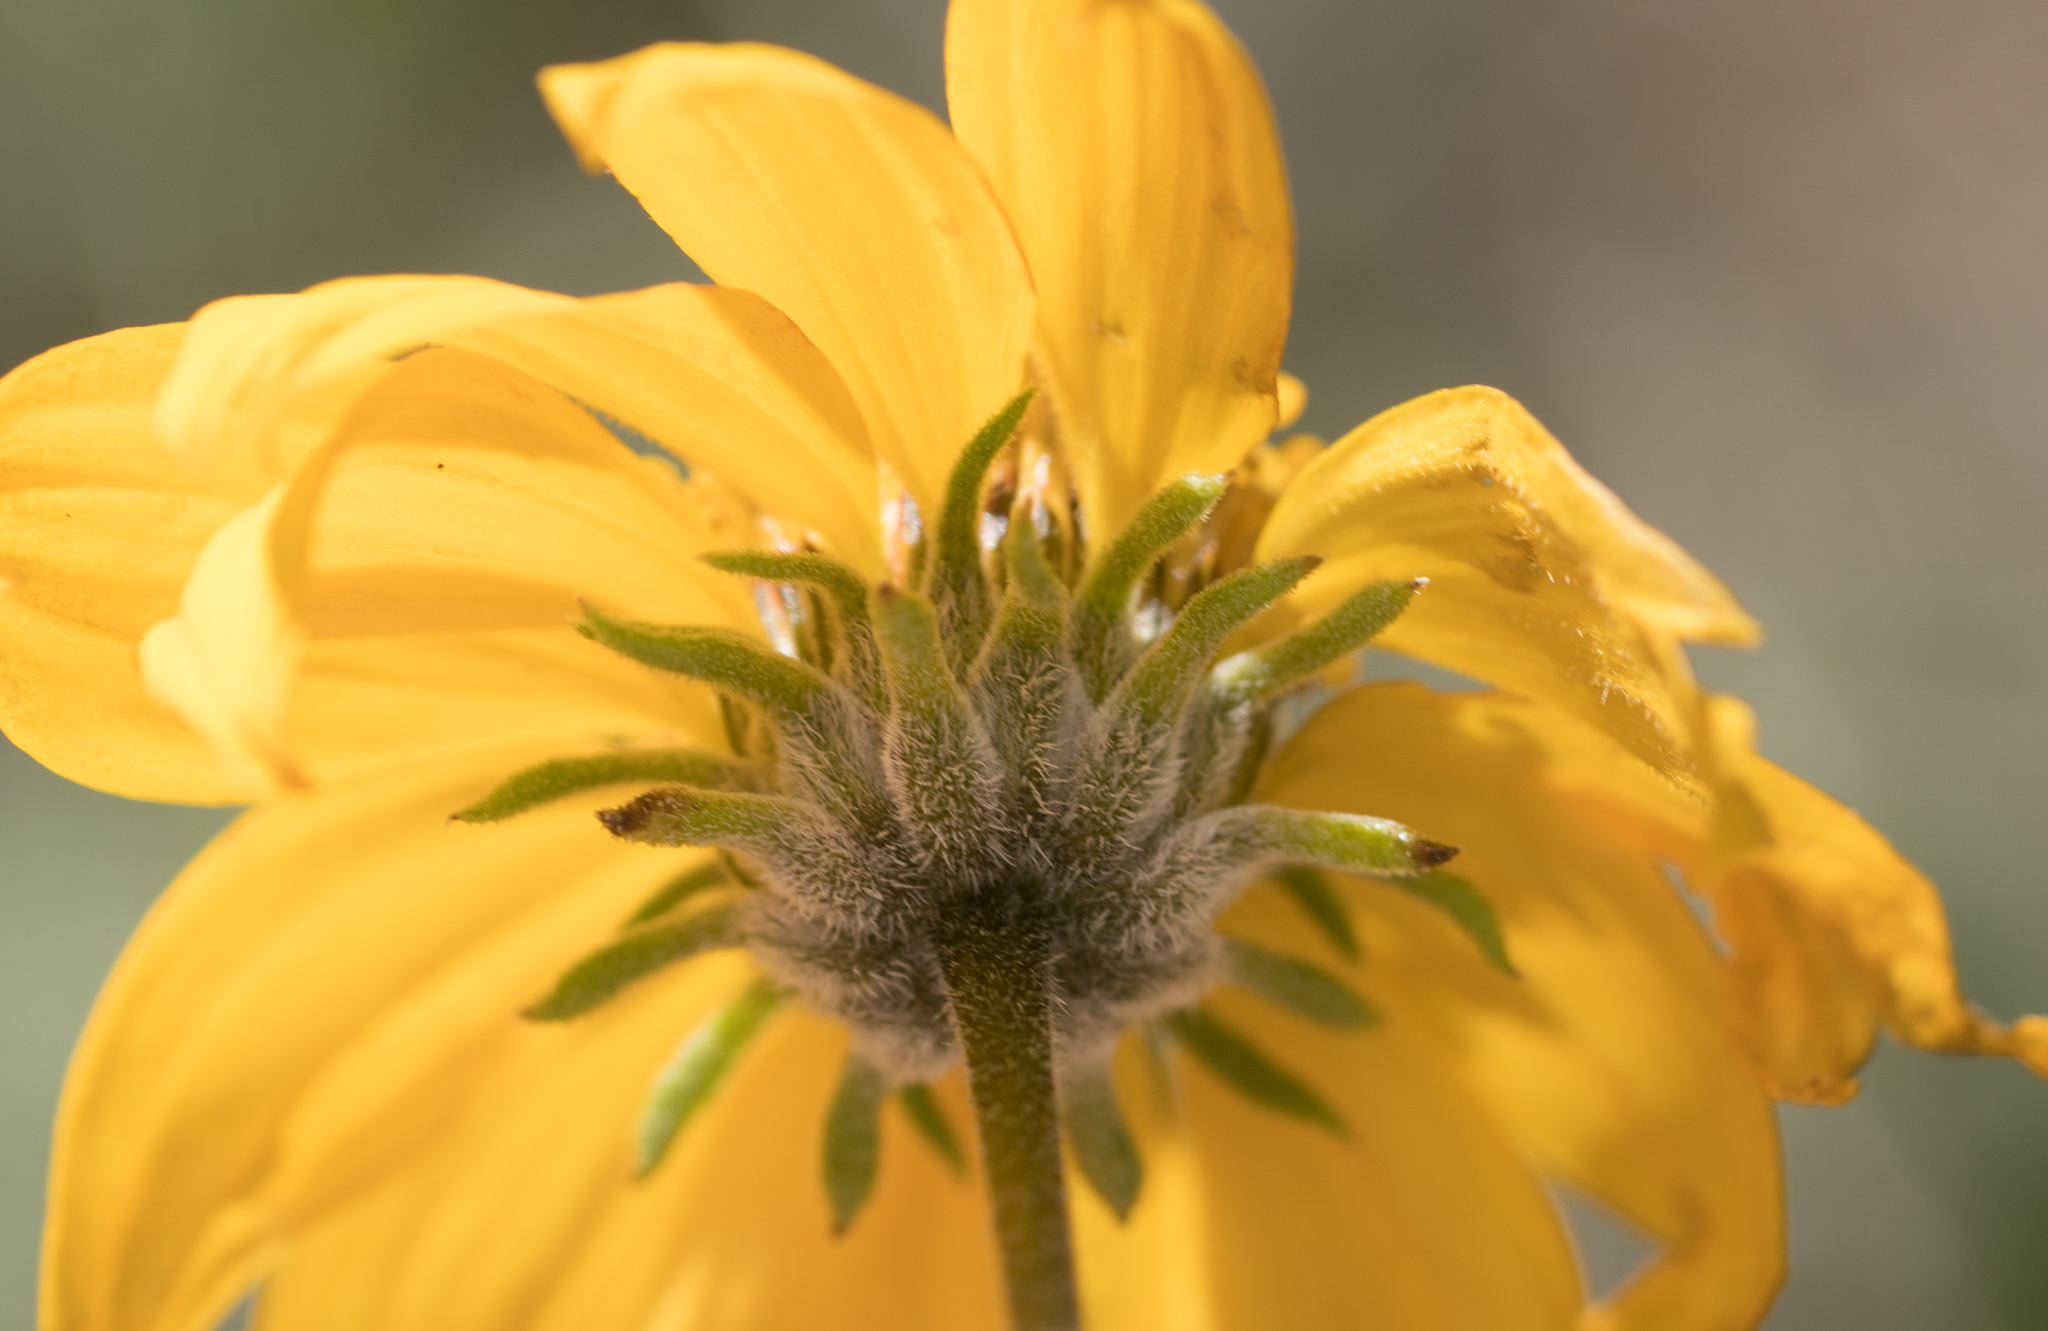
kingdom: Plantae
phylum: Tracheophyta
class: Magnoliopsida
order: Asterales
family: Asteraceae
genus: Bahiopsis
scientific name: Bahiopsis parishii
